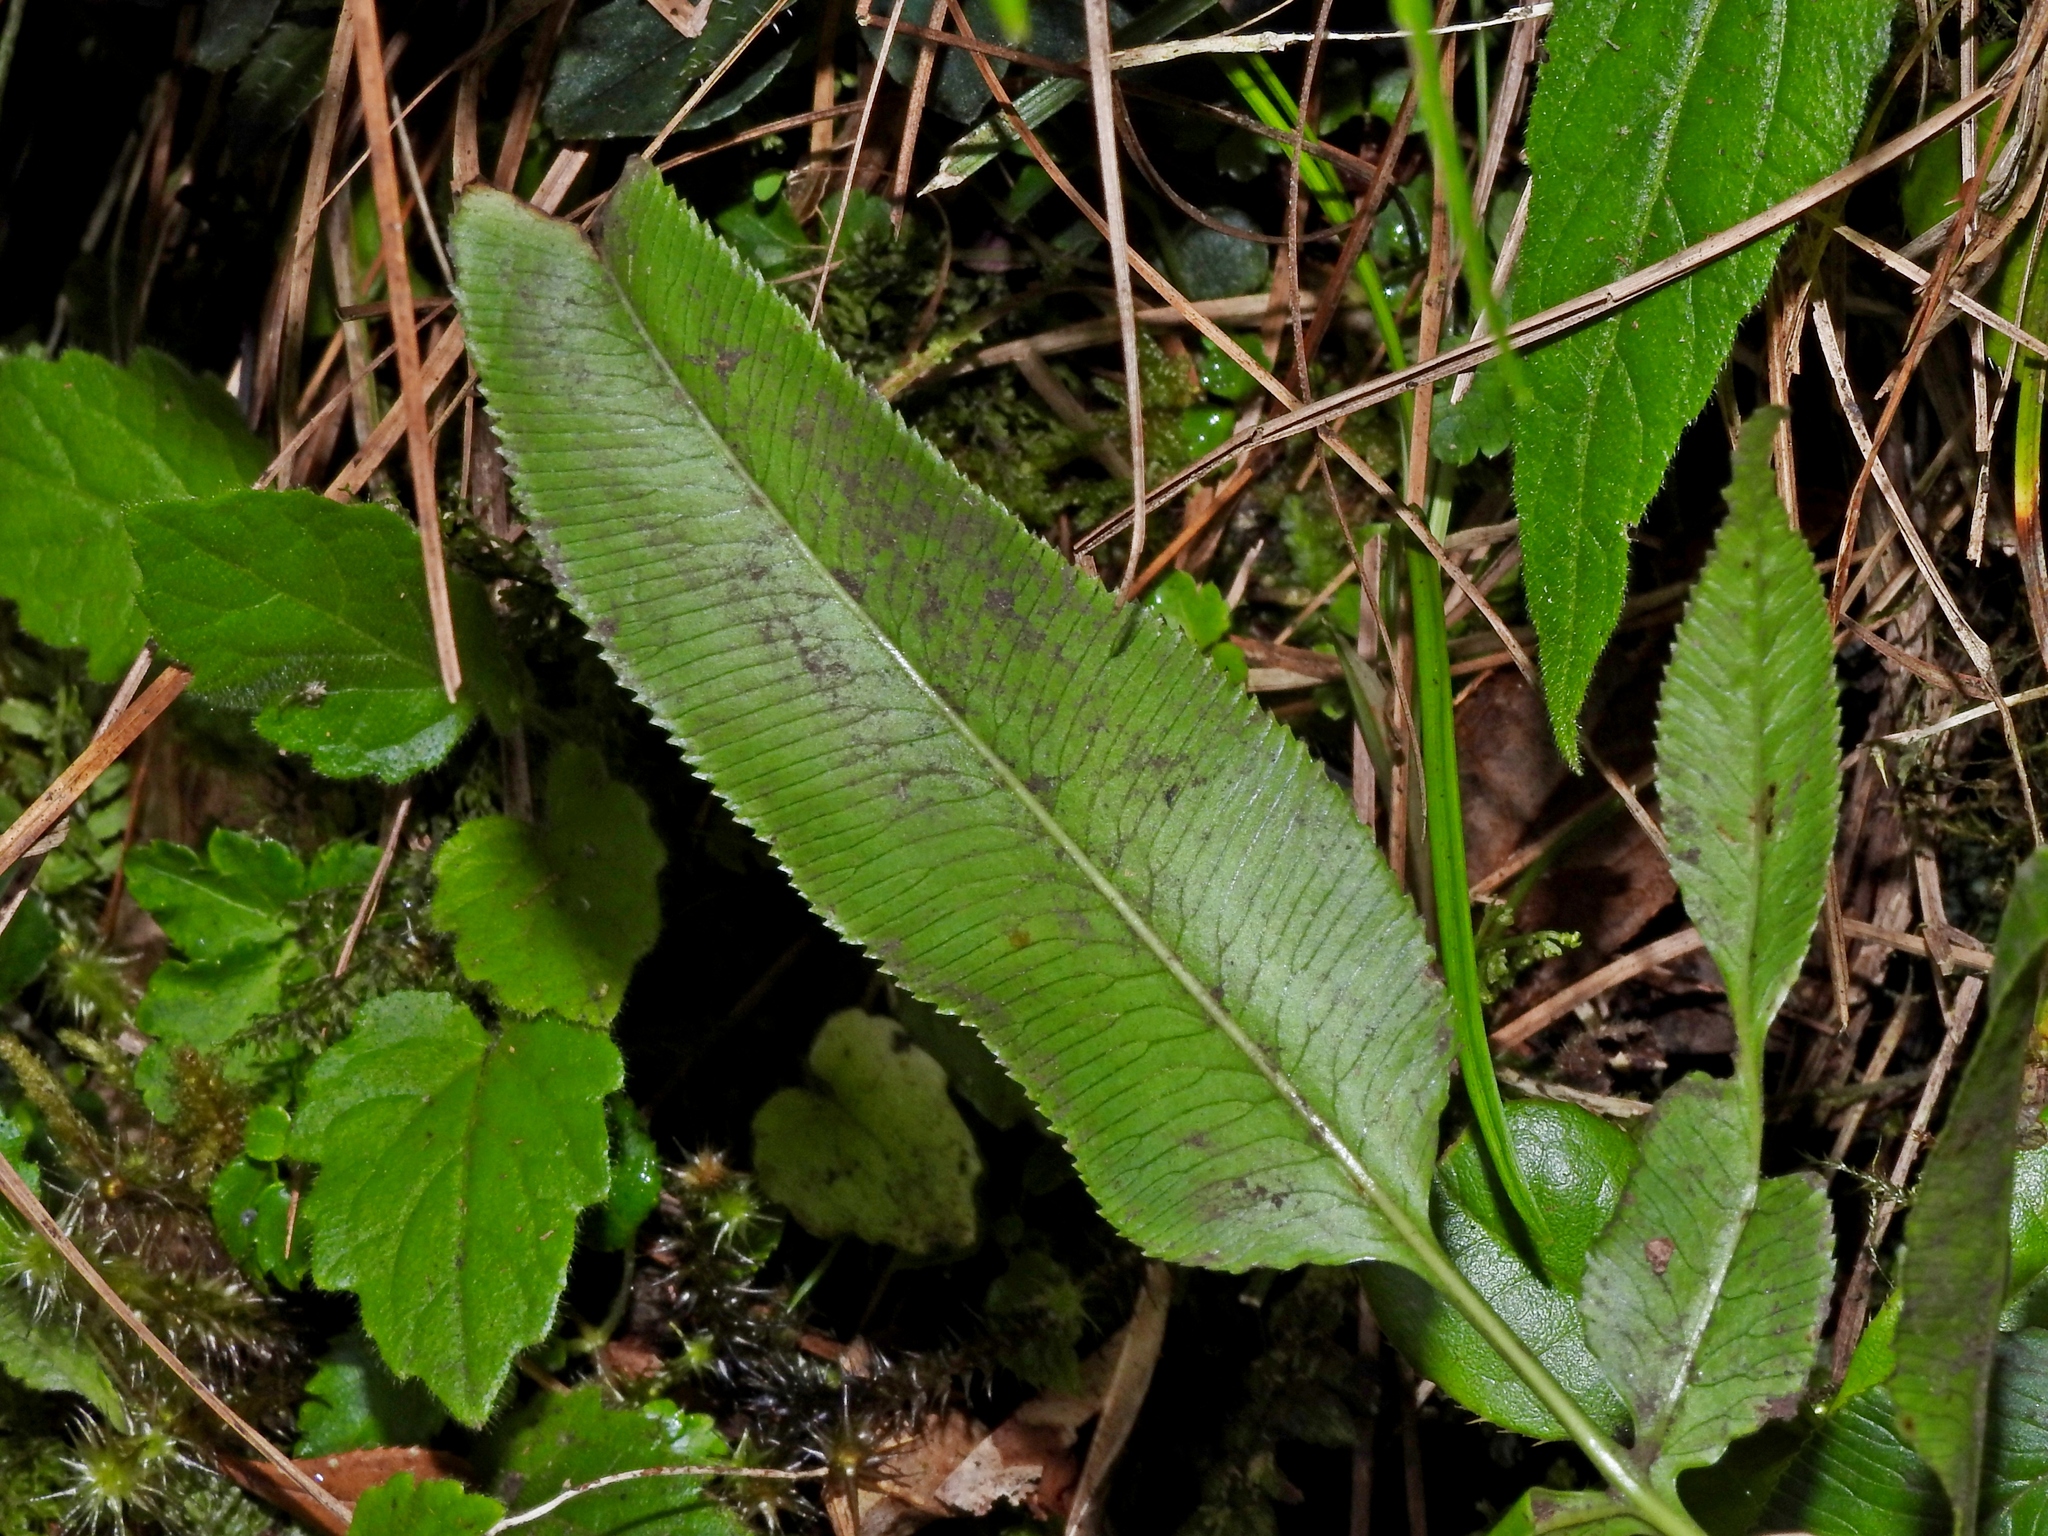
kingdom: Plantae
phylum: Tracheophyta
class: Polypodiopsida
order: Polypodiales
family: Pteridaceae
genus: Coniogramme
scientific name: Coniogramme intermedia
